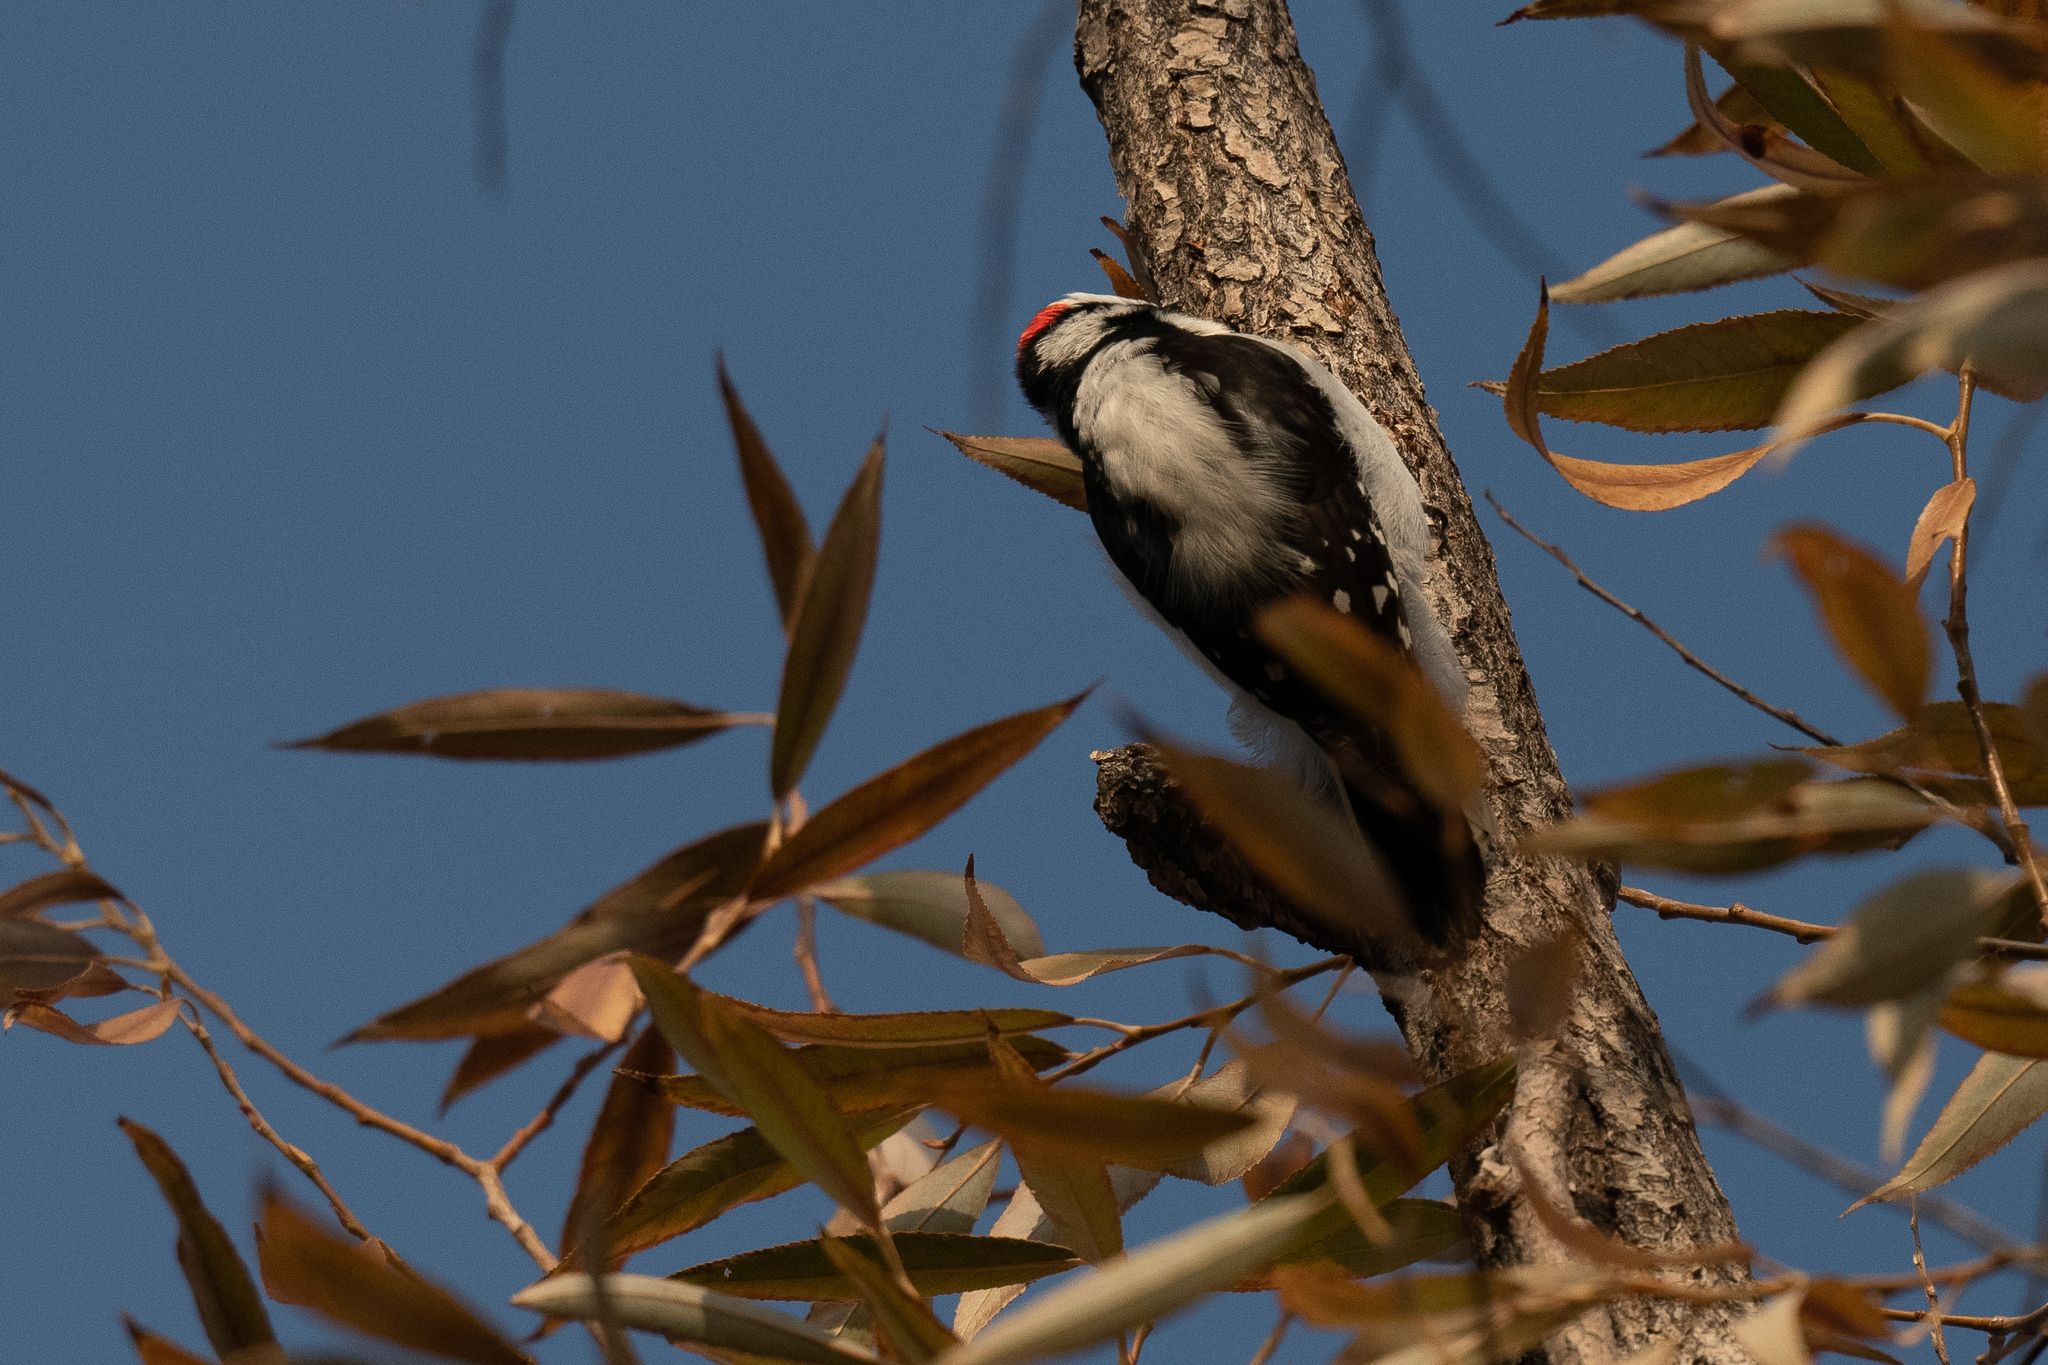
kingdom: Animalia
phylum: Chordata
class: Aves
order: Piciformes
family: Picidae
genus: Dryobates
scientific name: Dryobates pubescens
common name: Downy woodpecker
